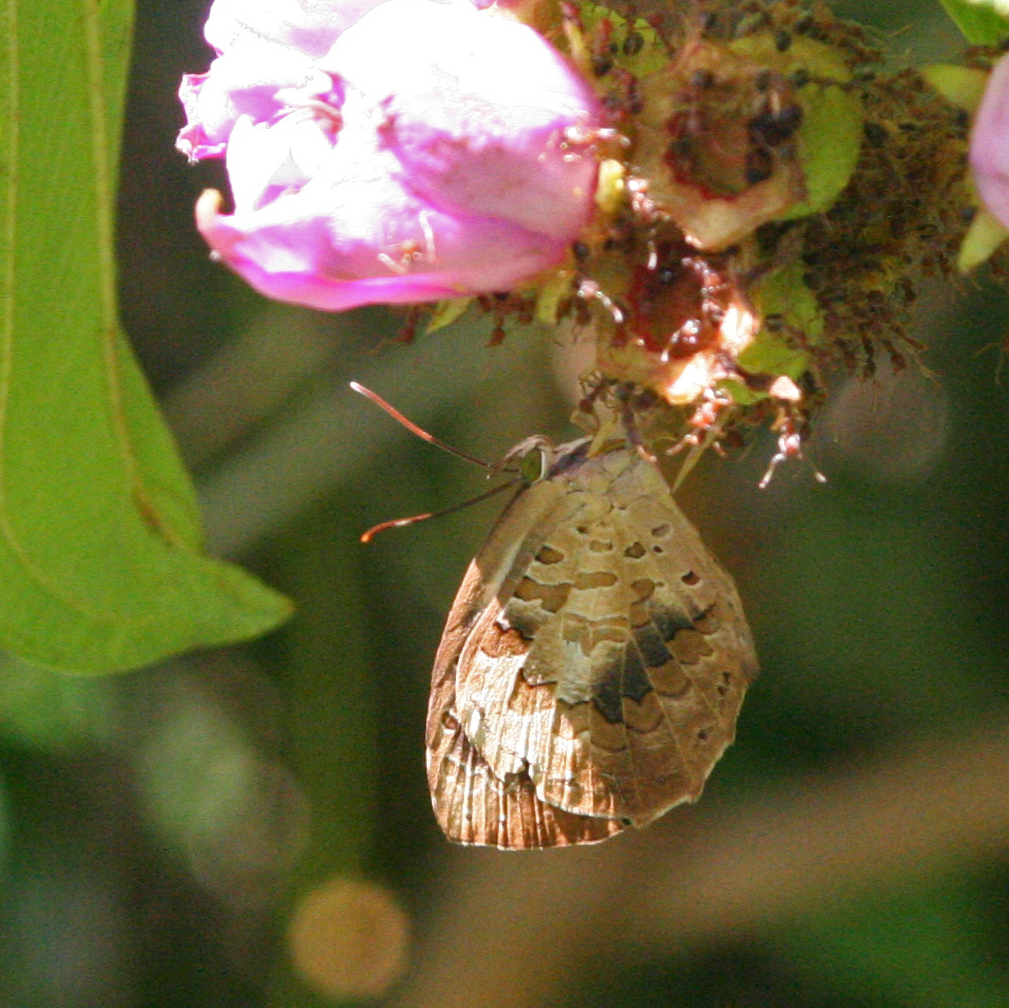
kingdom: Animalia
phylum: Arthropoda
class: Insecta
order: Lepidoptera
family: Lycaenidae
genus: Miletus
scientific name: Miletus ancon
